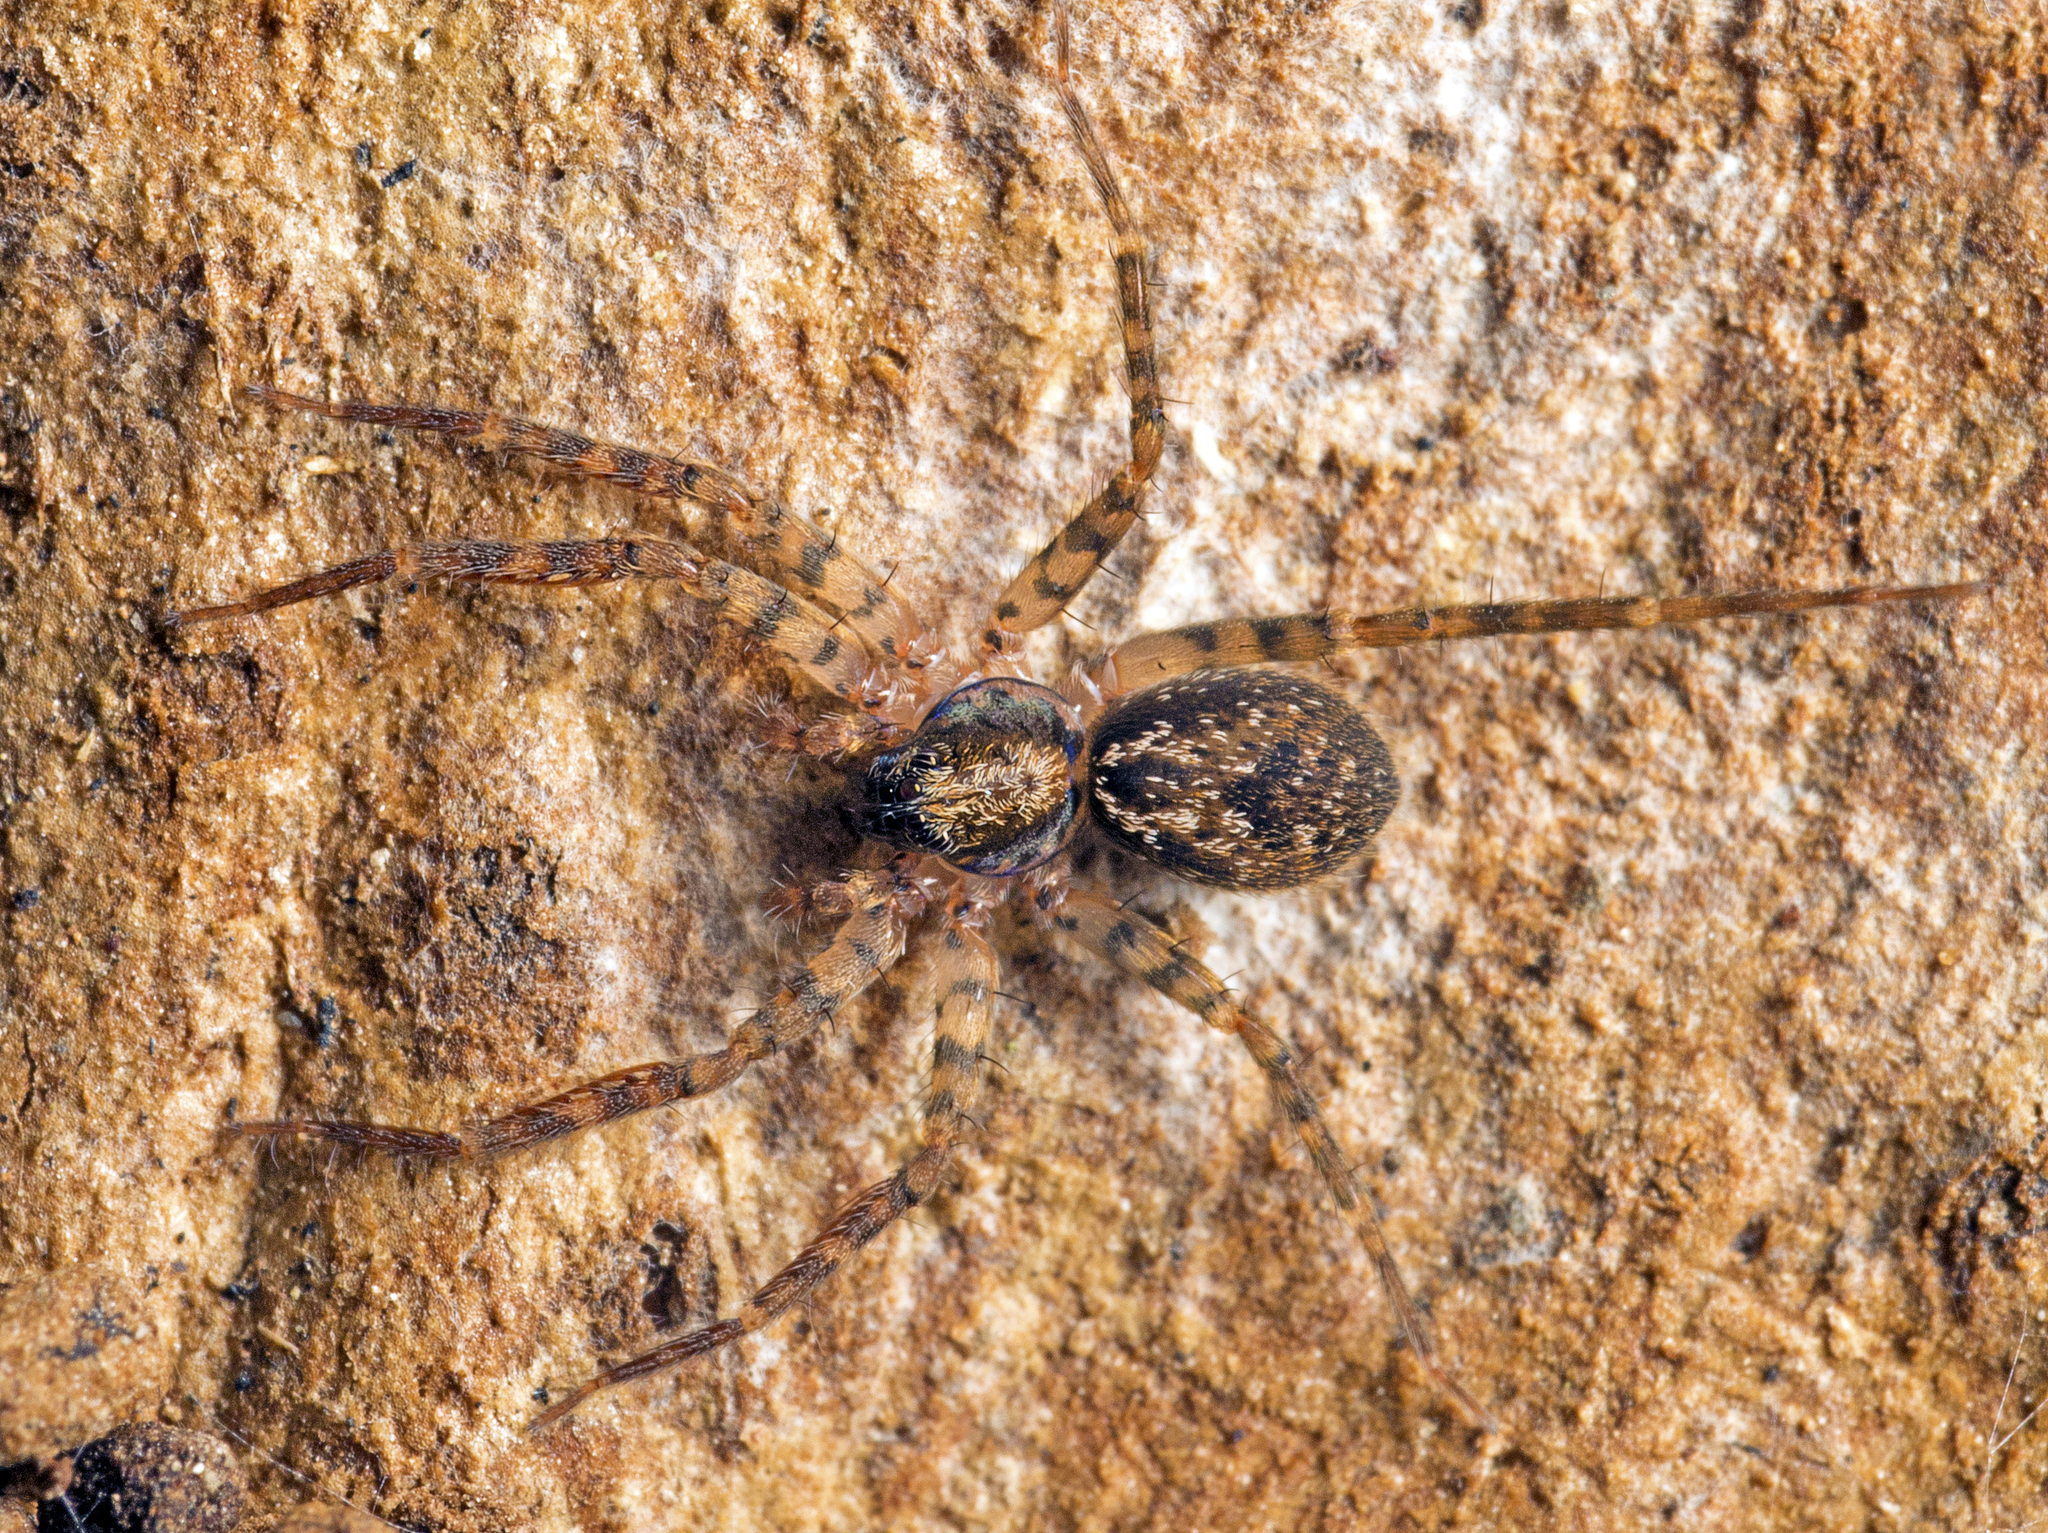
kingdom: Animalia
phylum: Arthropoda
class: Arachnida
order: Araneae
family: Toxopidae
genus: Toxopsoides
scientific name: Toxopsoides erici
